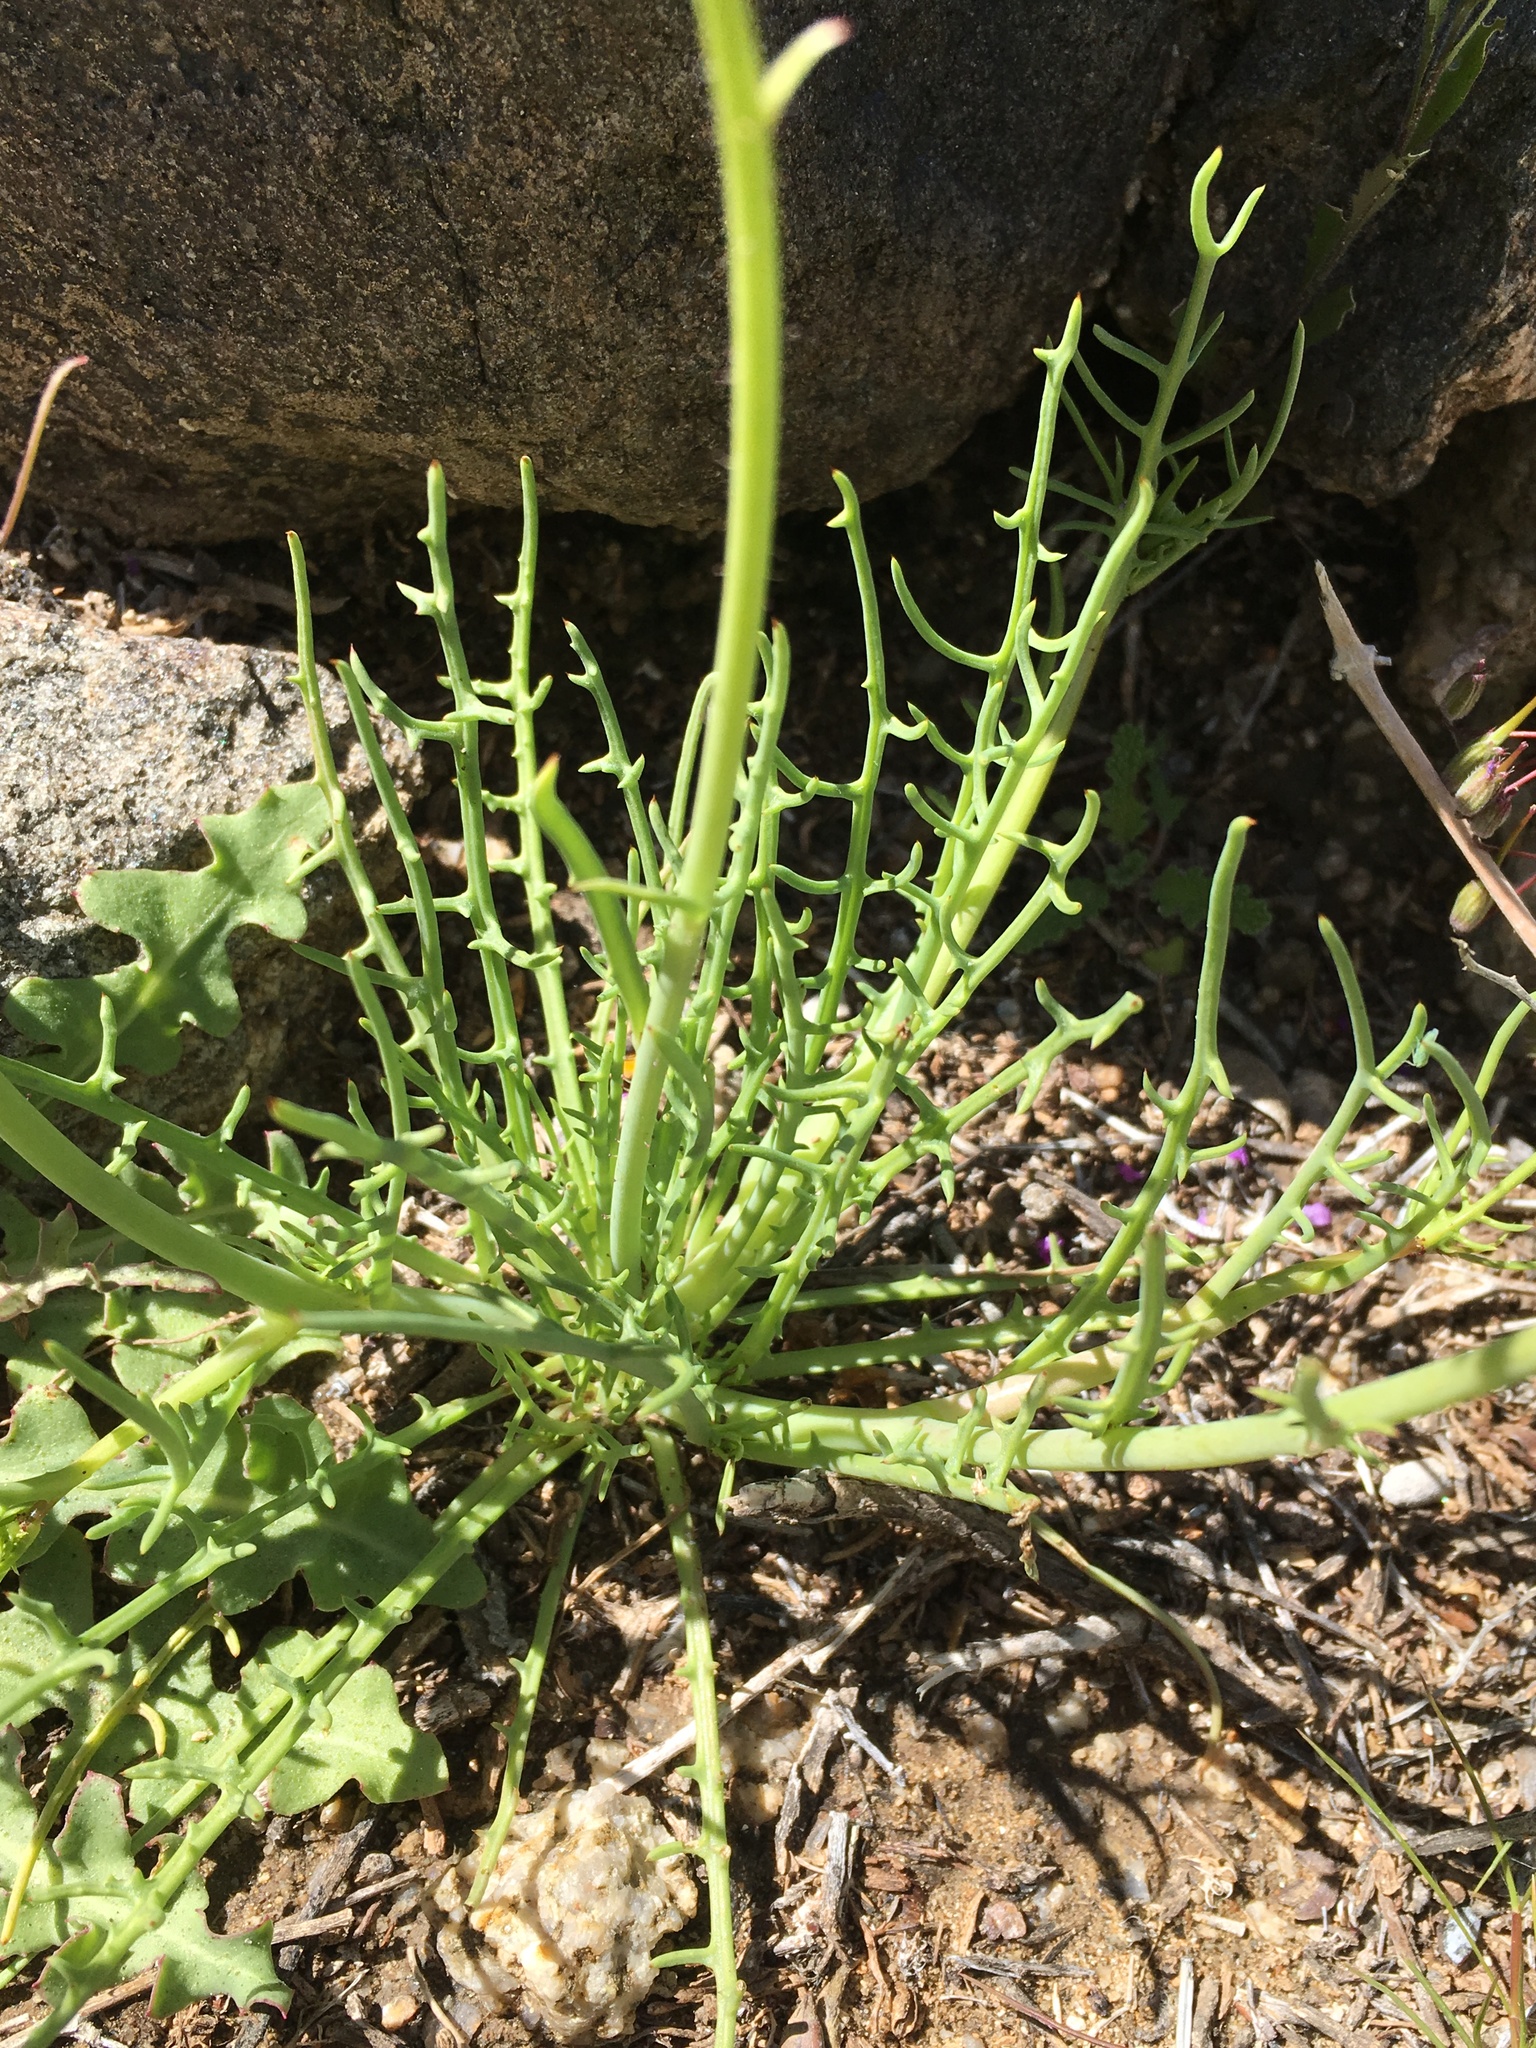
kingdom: Plantae
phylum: Tracheophyta
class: Magnoliopsida
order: Asterales
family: Asteraceae
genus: Calycoseris
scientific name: Calycoseris parryi
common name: Yellow tackstem
